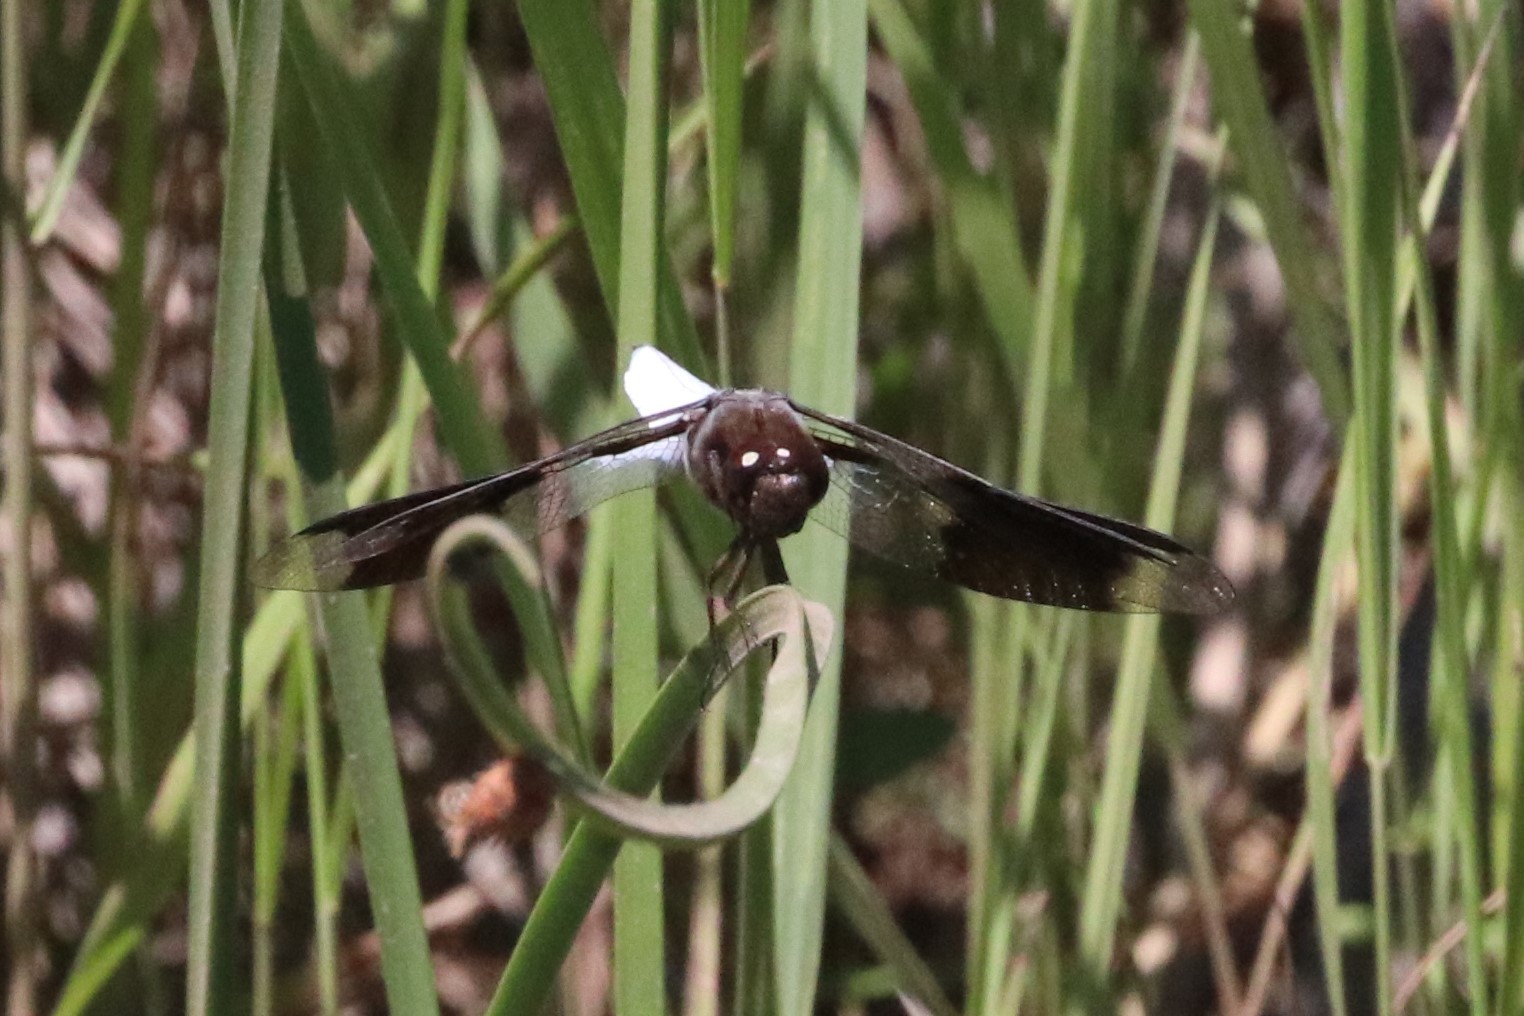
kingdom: Animalia
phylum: Arthropoda
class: Insecta
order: Odonata
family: Libellulidae
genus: Plathemis
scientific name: Plathemis lydia
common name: Common whitetail
